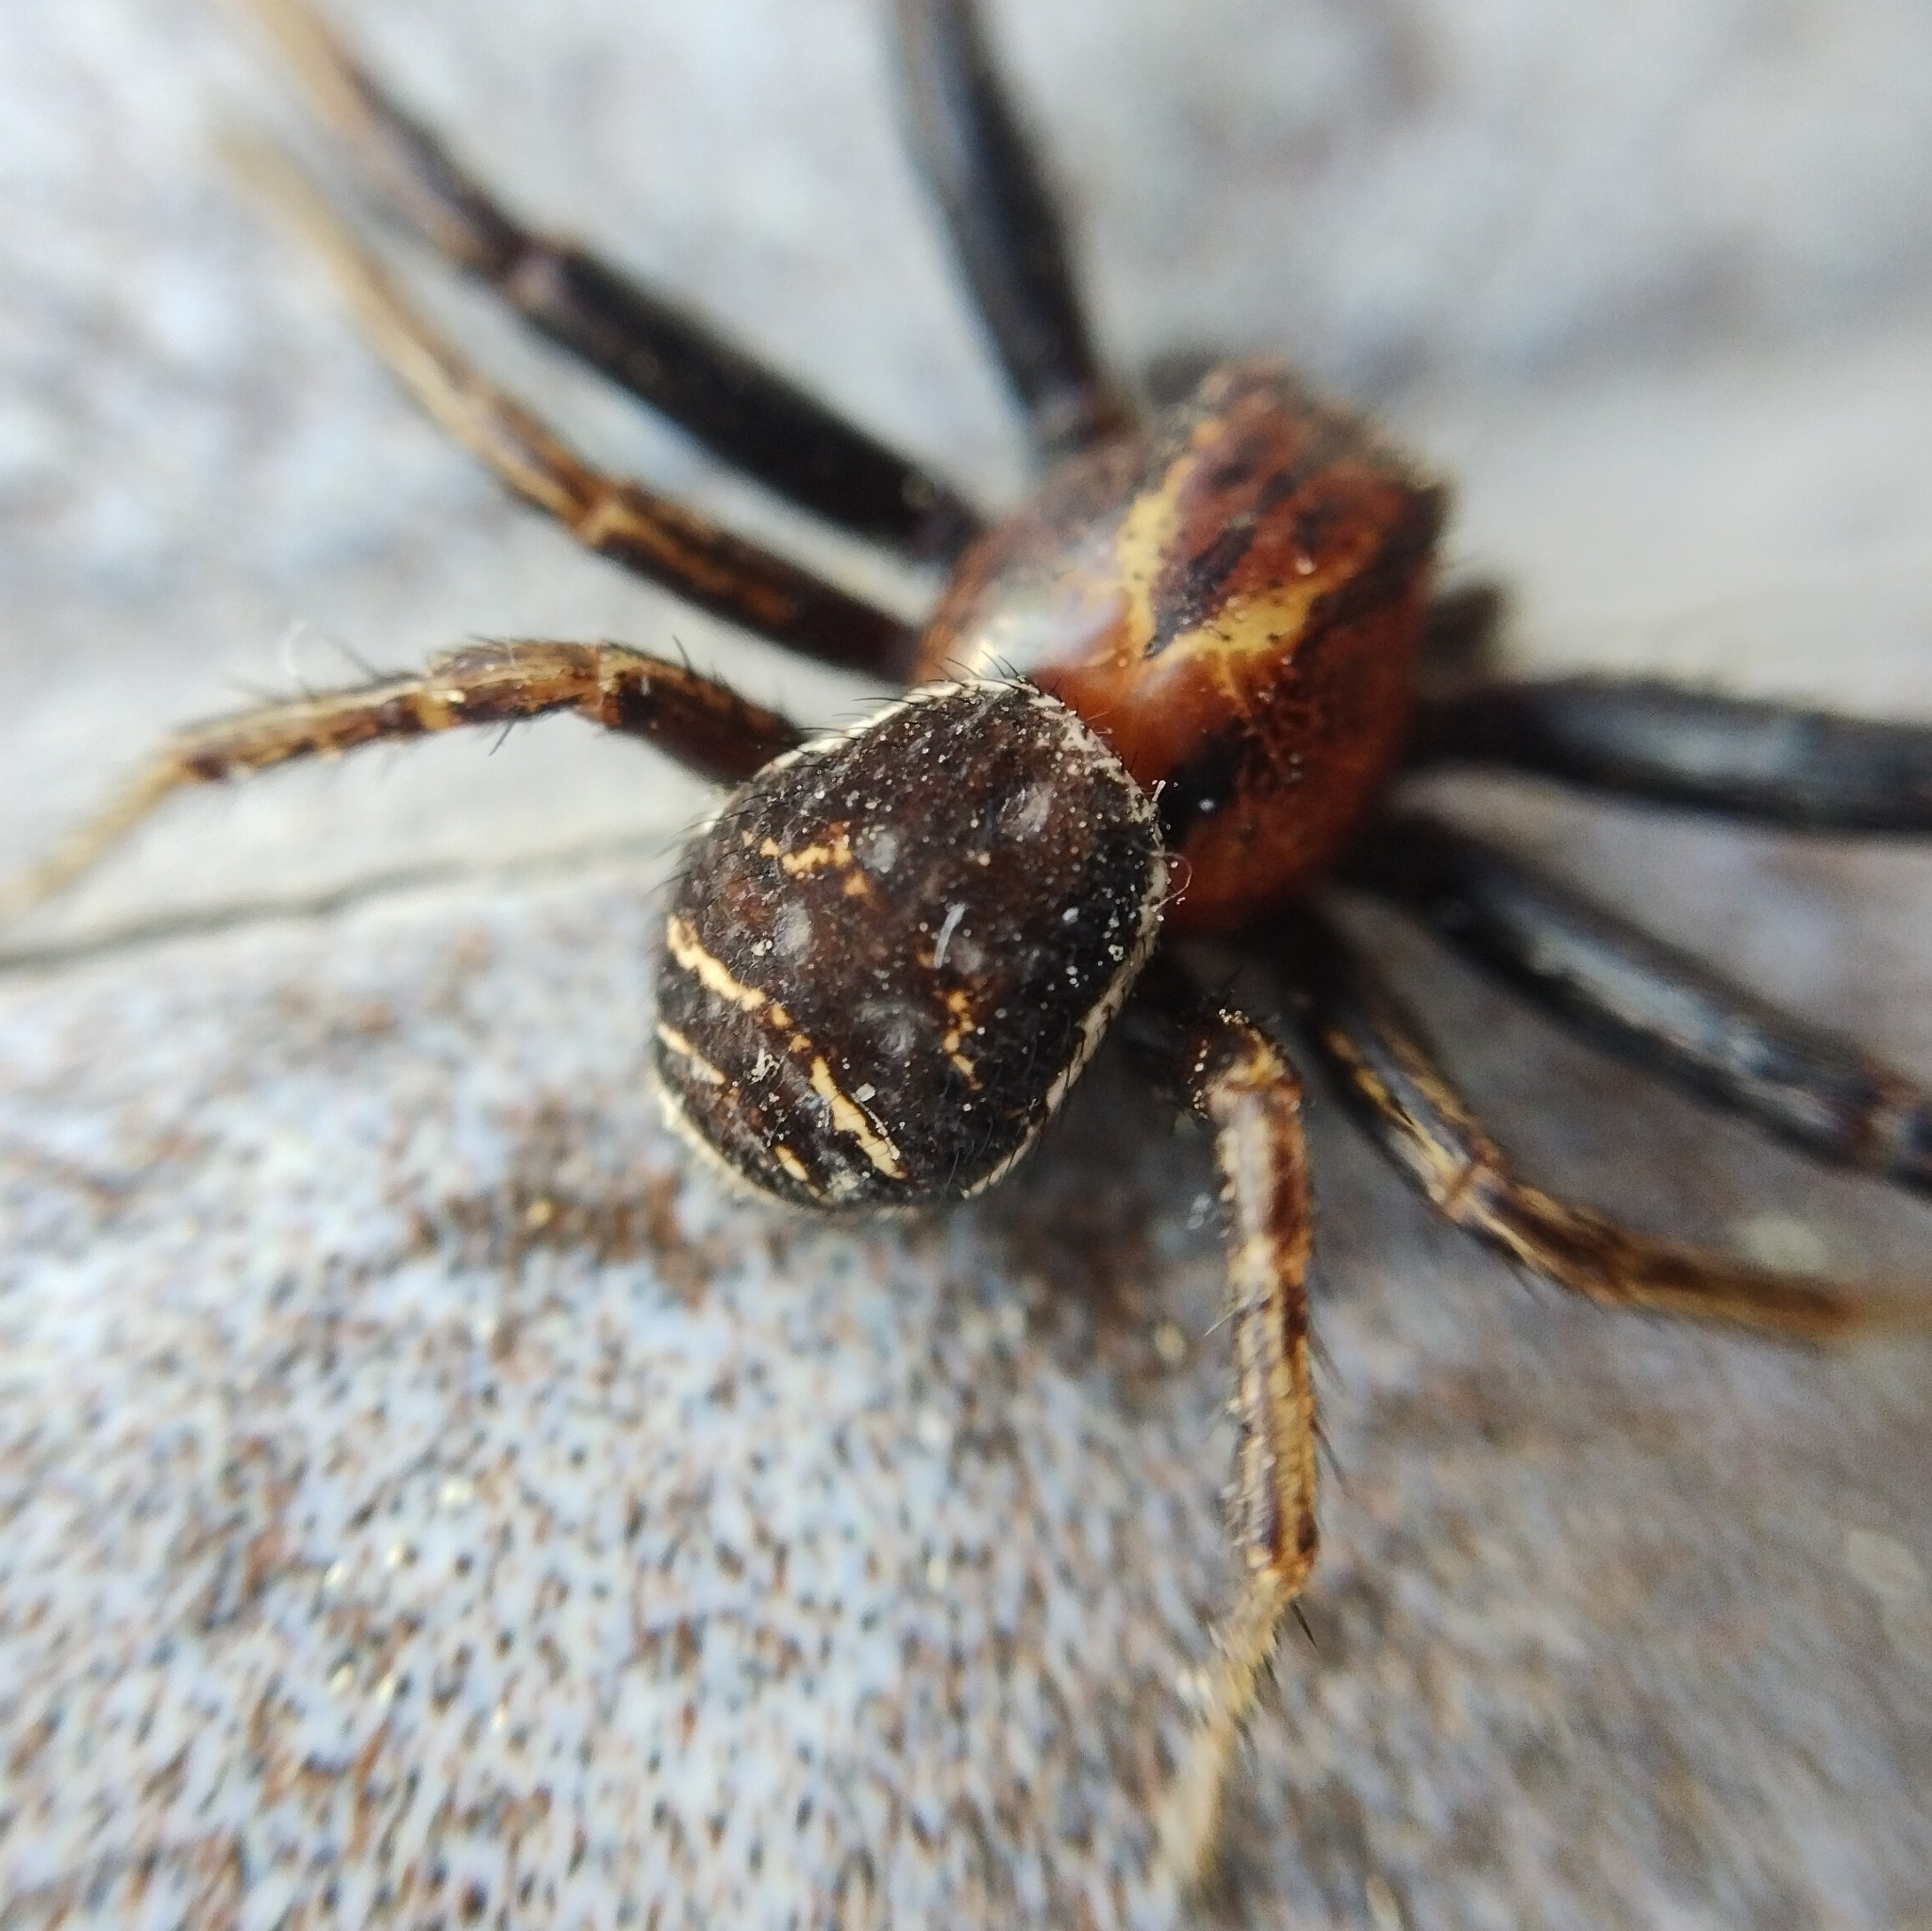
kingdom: Animalia
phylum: Arthropoda
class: Arachnida
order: Araneae
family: Thomisidae
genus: Xysticus
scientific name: Xysticus bifasciatus
